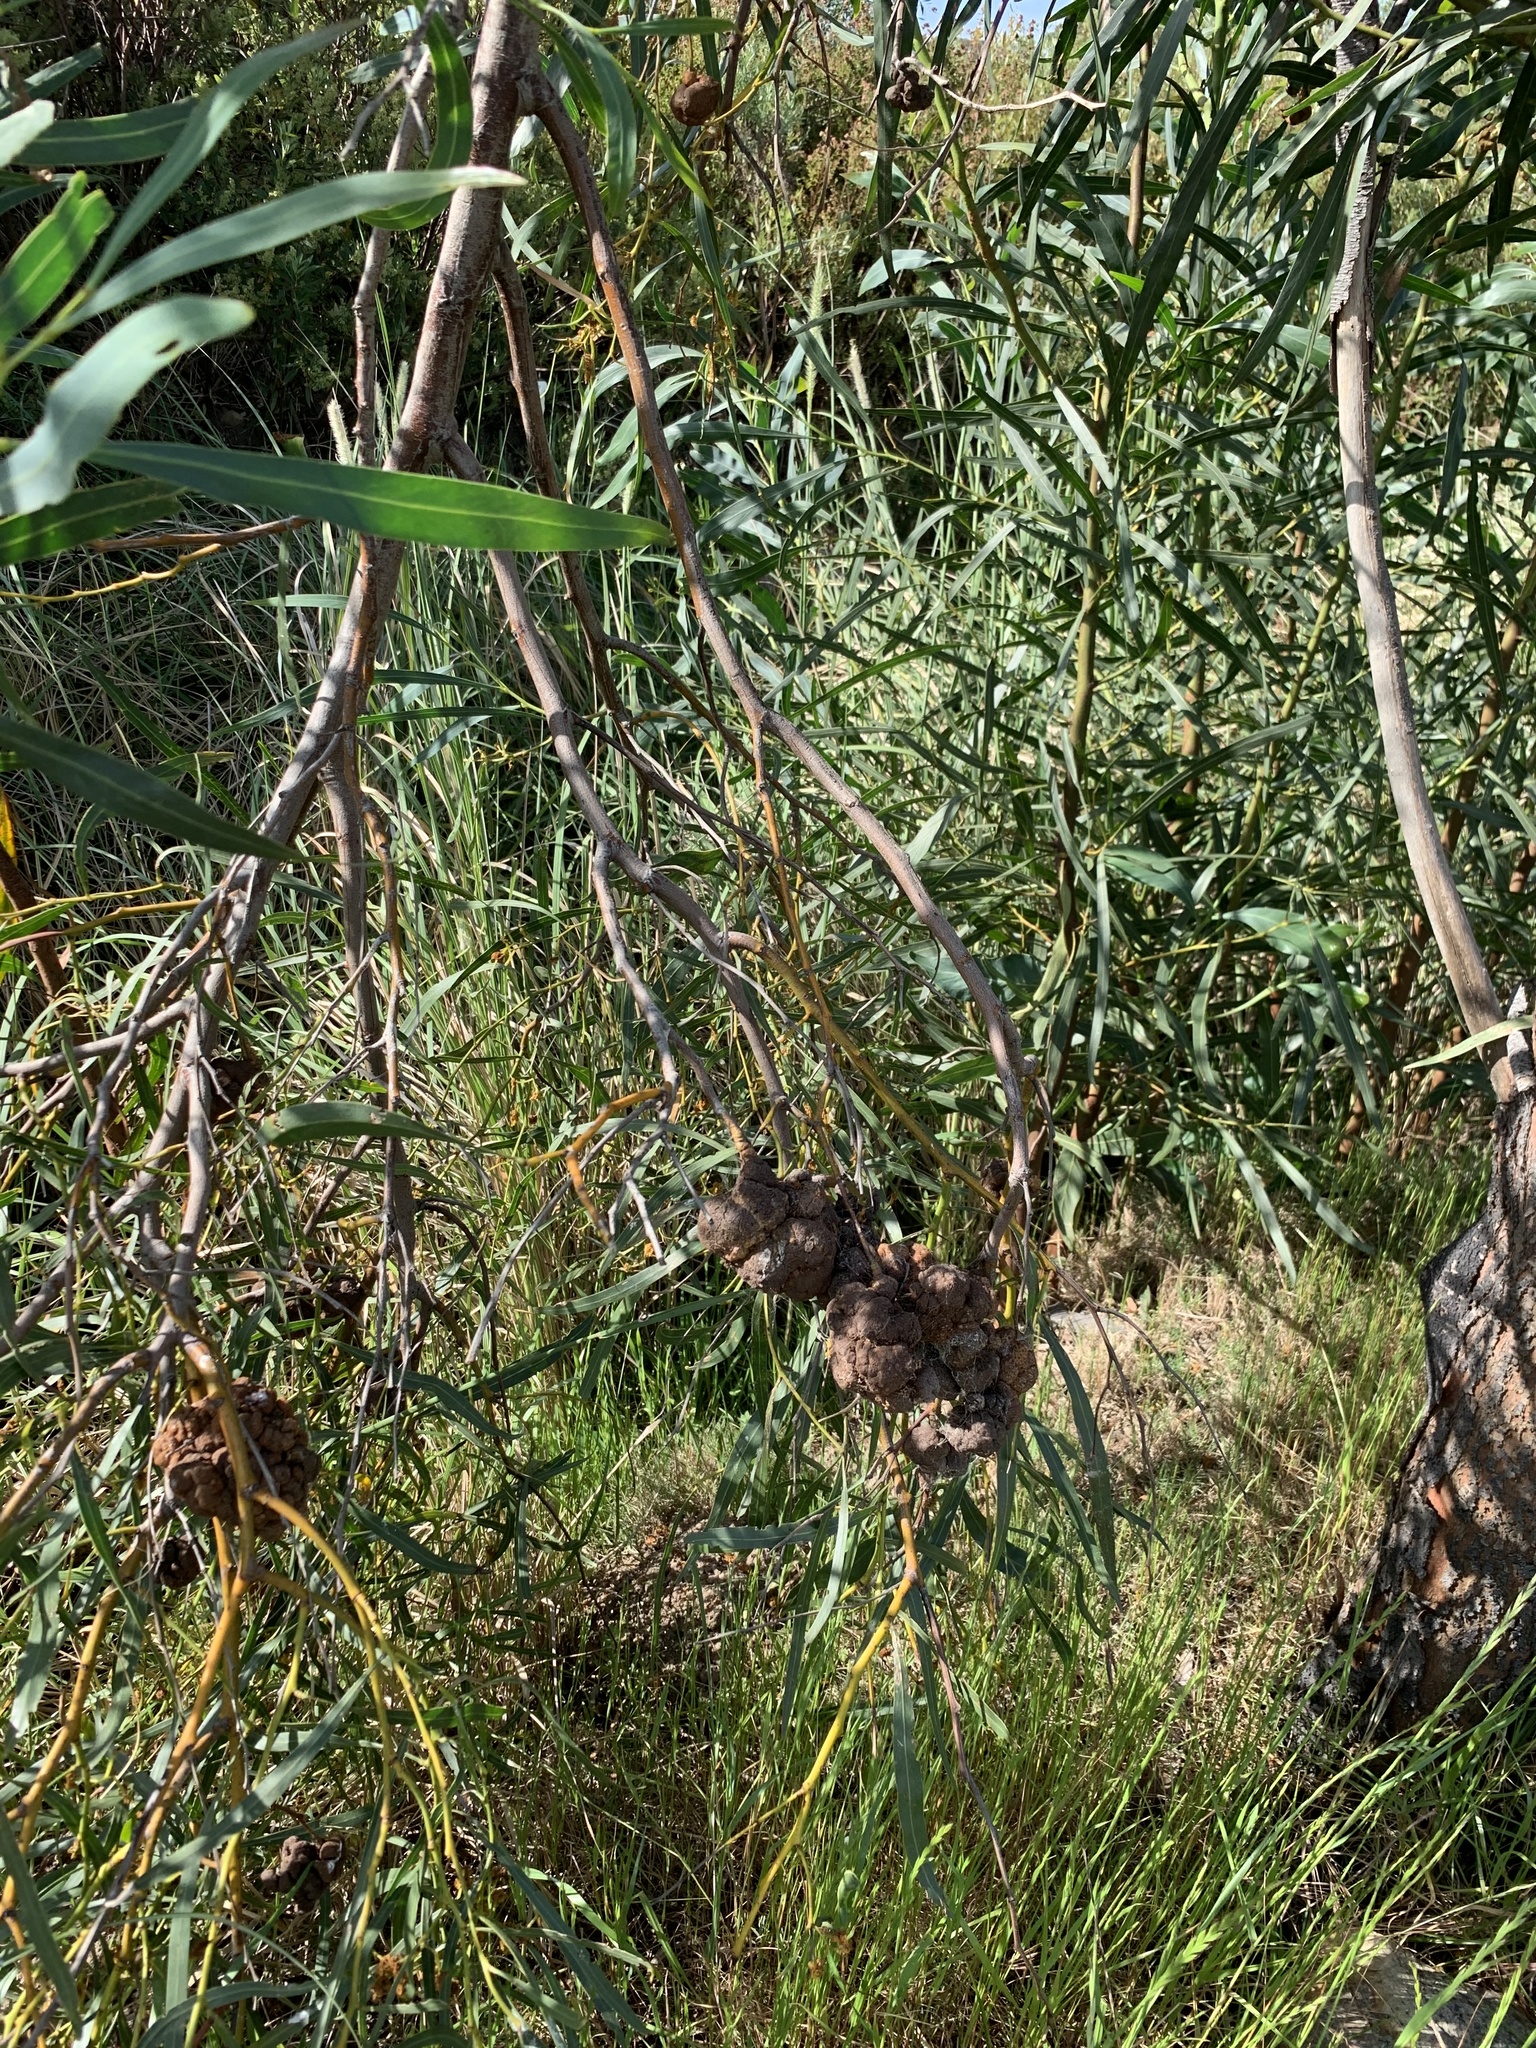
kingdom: Plantae
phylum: Tracheophyta
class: Magnoliopsida
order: Fabales
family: Fabaceae
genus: Acacia
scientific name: Acacia saligna
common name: Orange wattle
